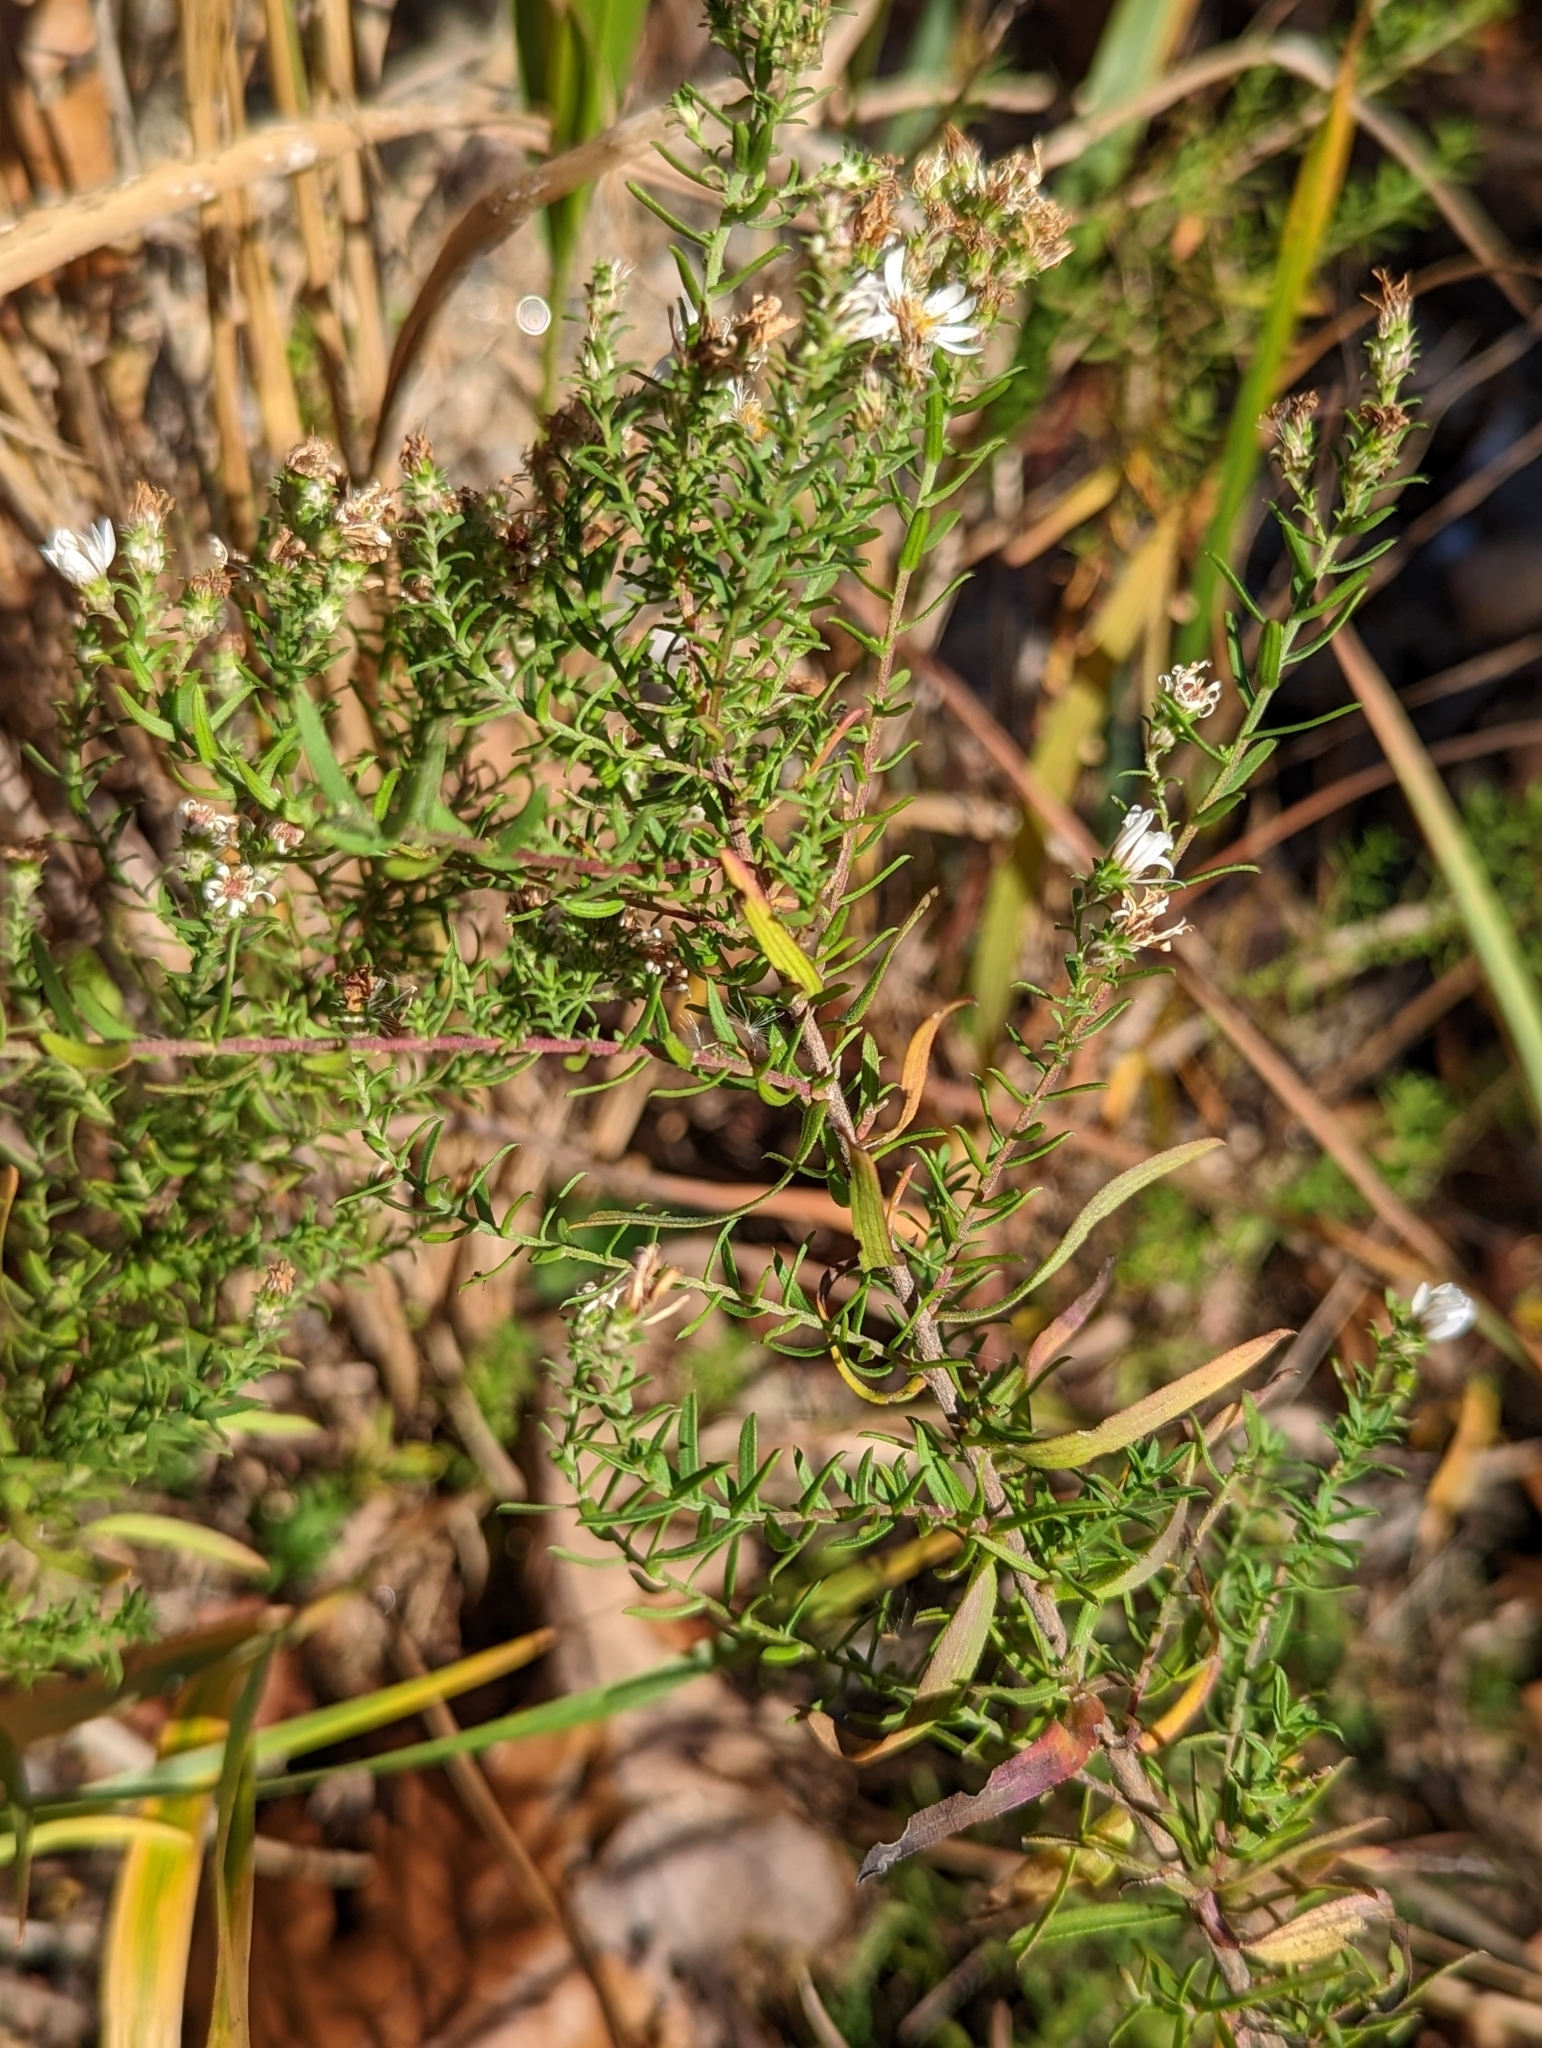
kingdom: Plantae
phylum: Tracheophyta
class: Magnoliopsida
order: Asterales
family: Asteraceae
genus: Symphyotrichum
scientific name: Symphyotrichum ericoides
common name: Heath aster
